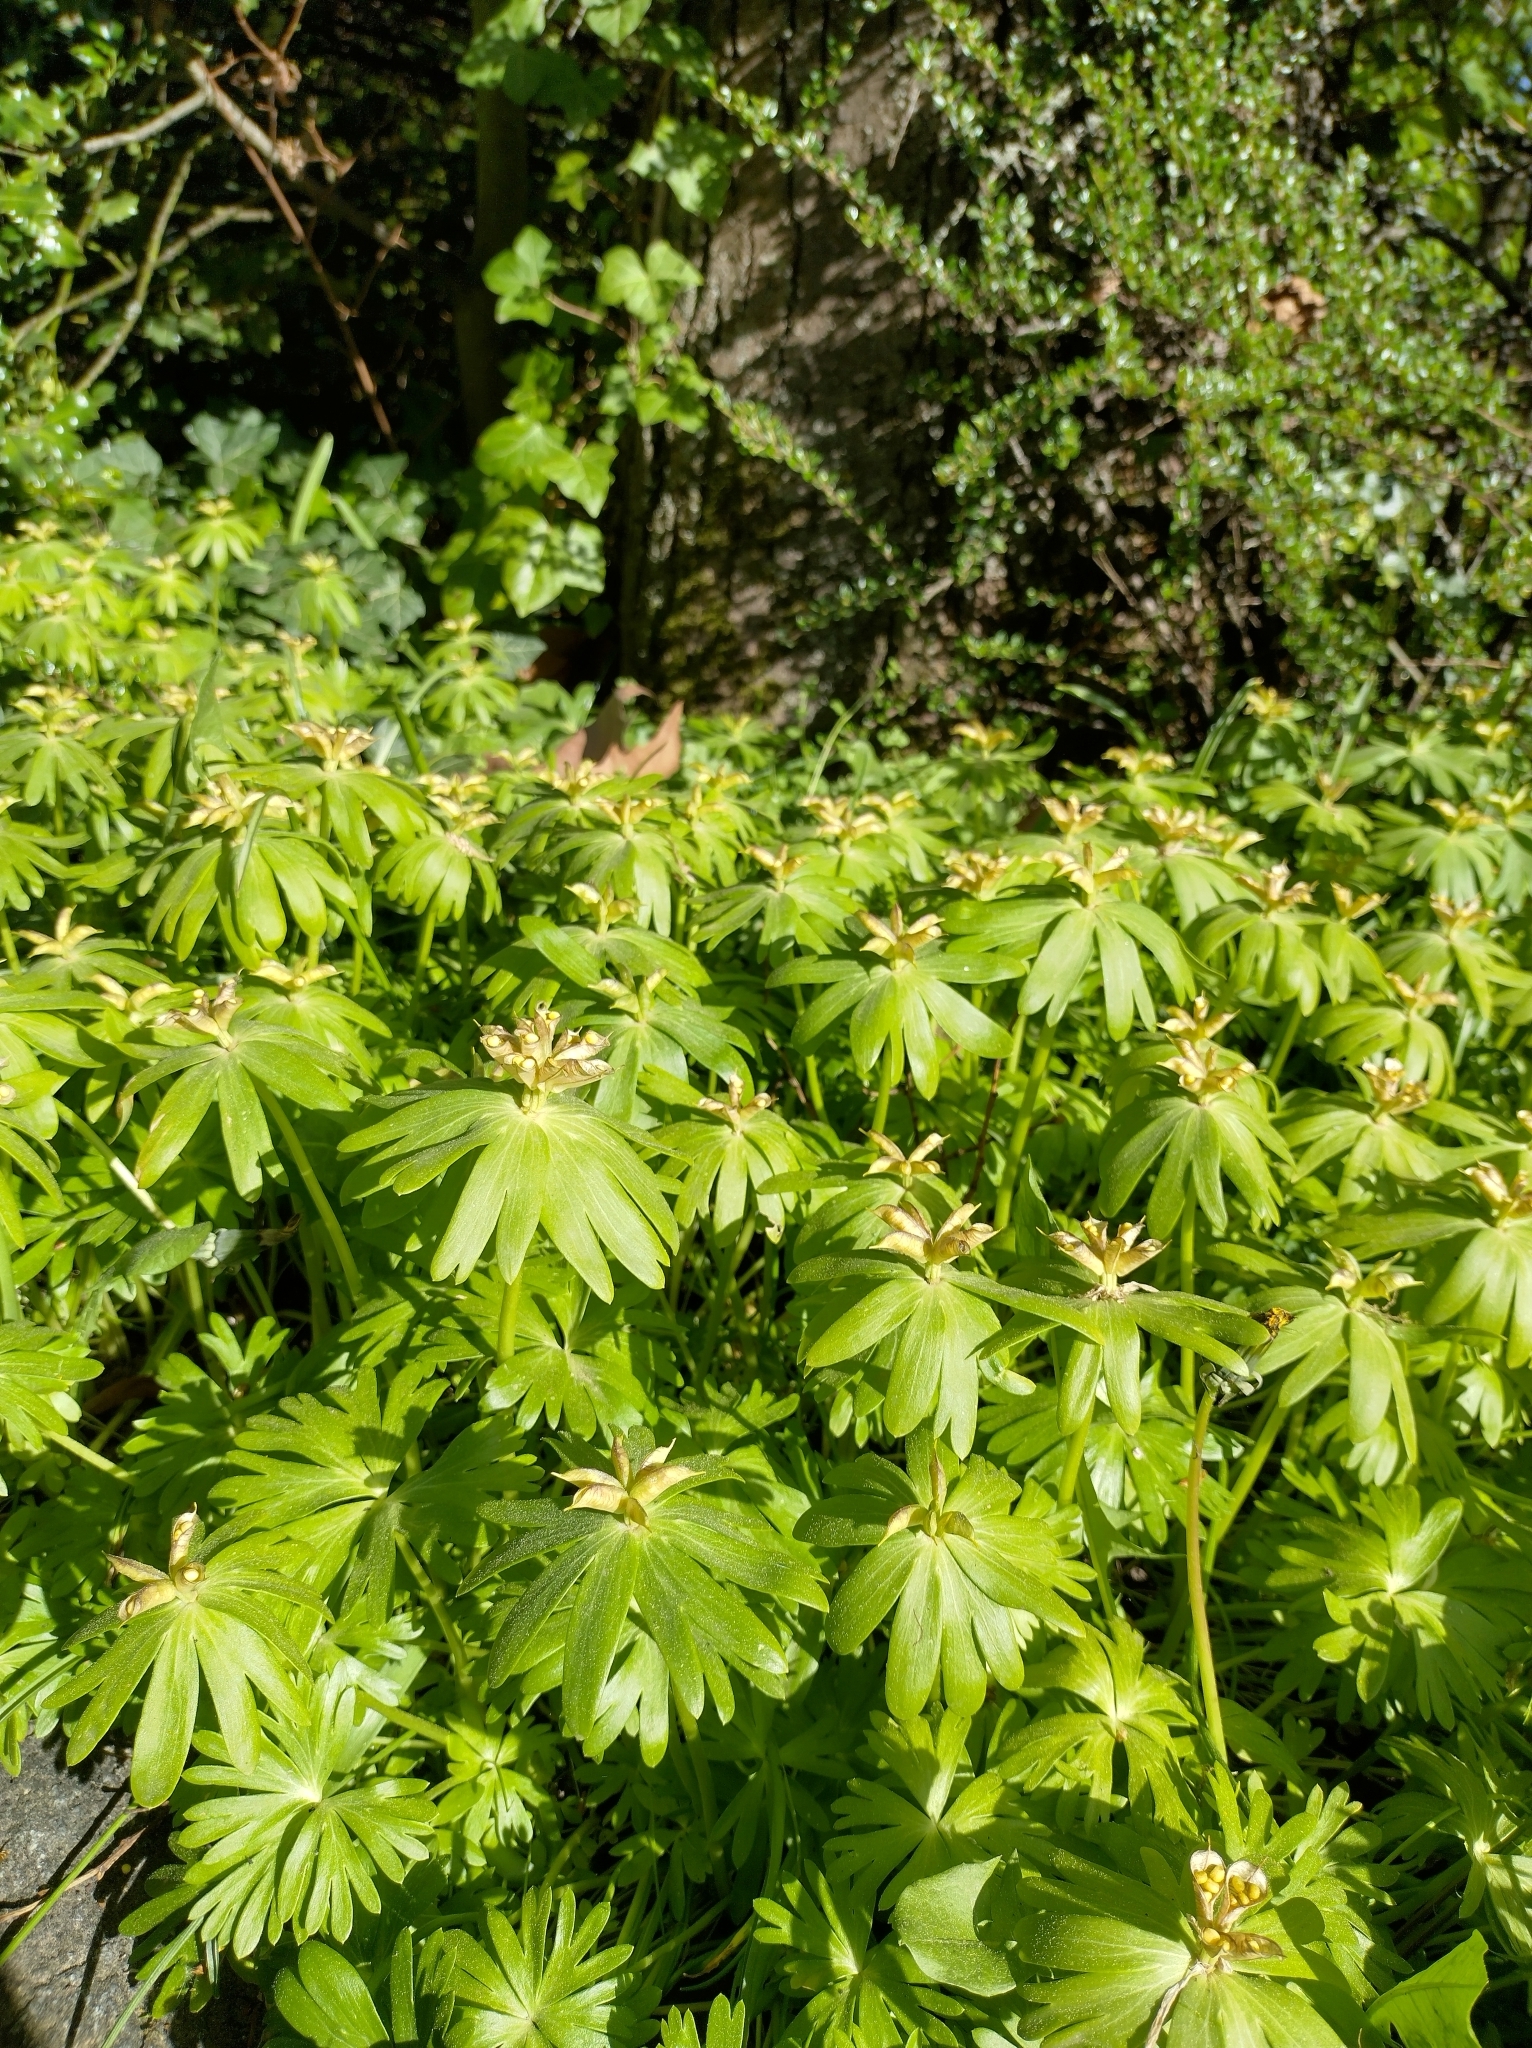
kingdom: Plantae
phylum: Tracheophyta
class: Magnoliopsida
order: Ranunculales
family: Ranunculaceae
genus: Eranthis
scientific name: Eranthis hyemalis
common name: Winter aconite
